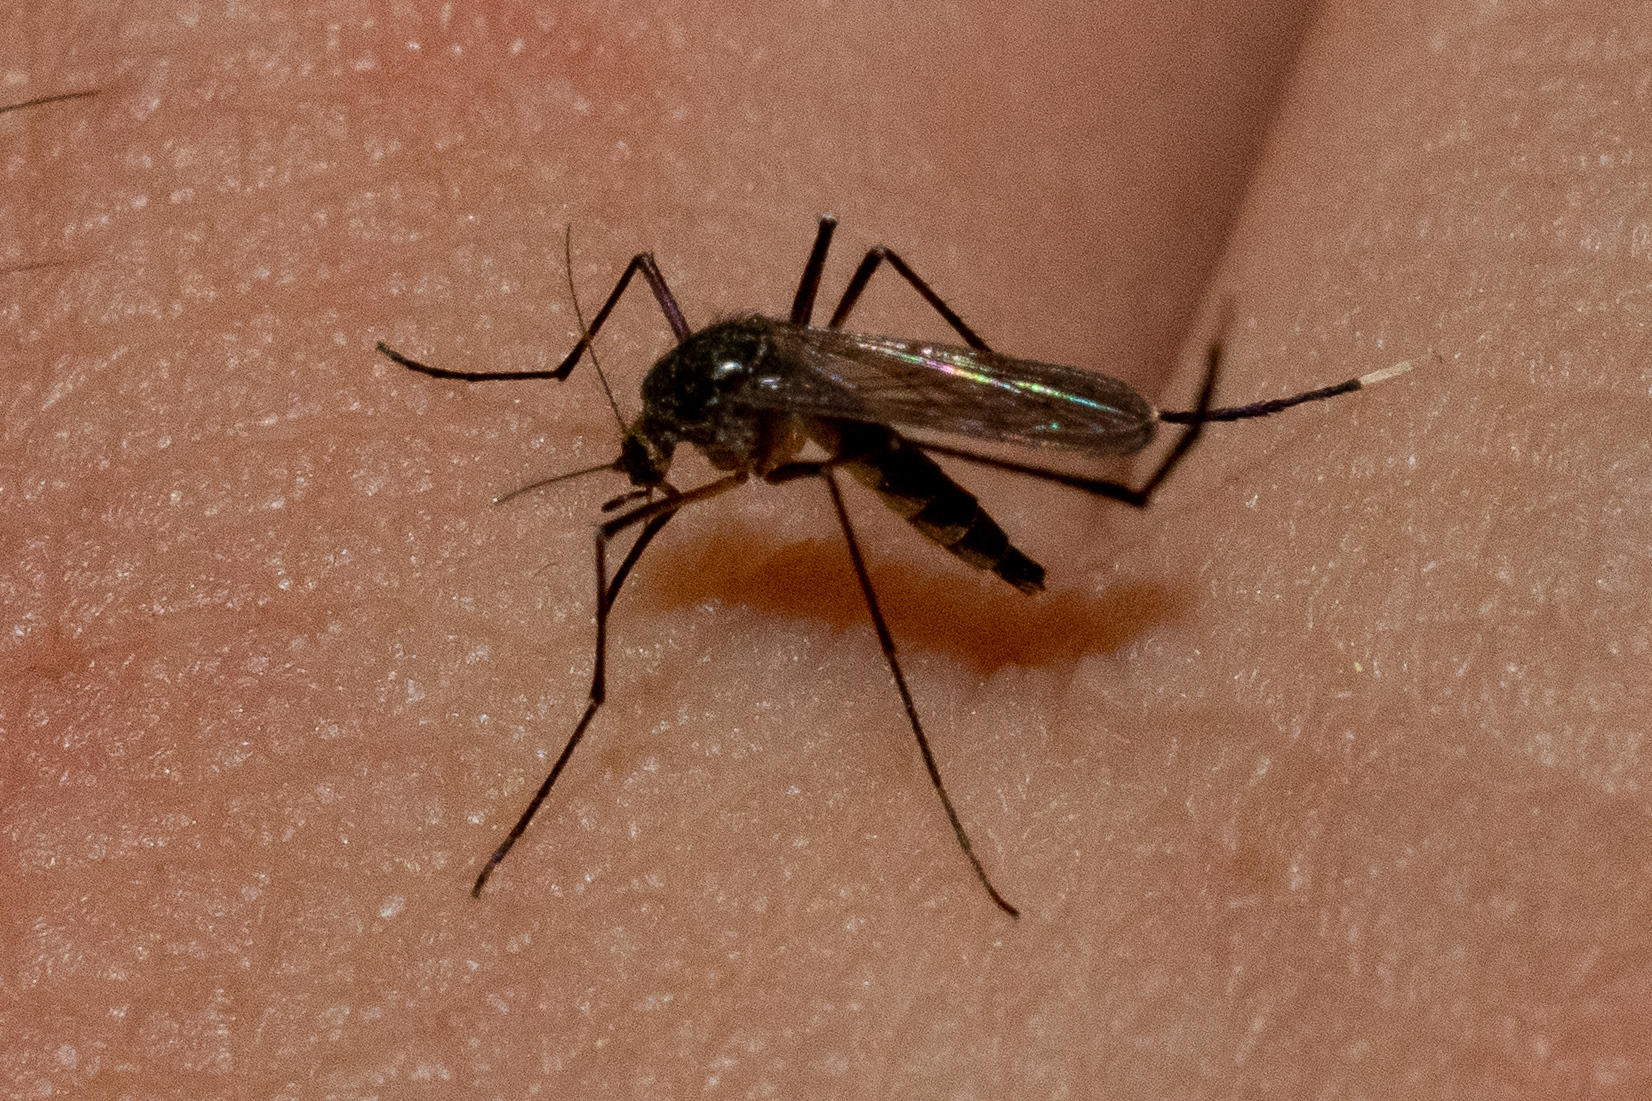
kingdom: Animalia
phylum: Arthropoda
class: Insecta
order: Diptera
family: Culicidae
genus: Psorophora
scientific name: Psorophora ferox
